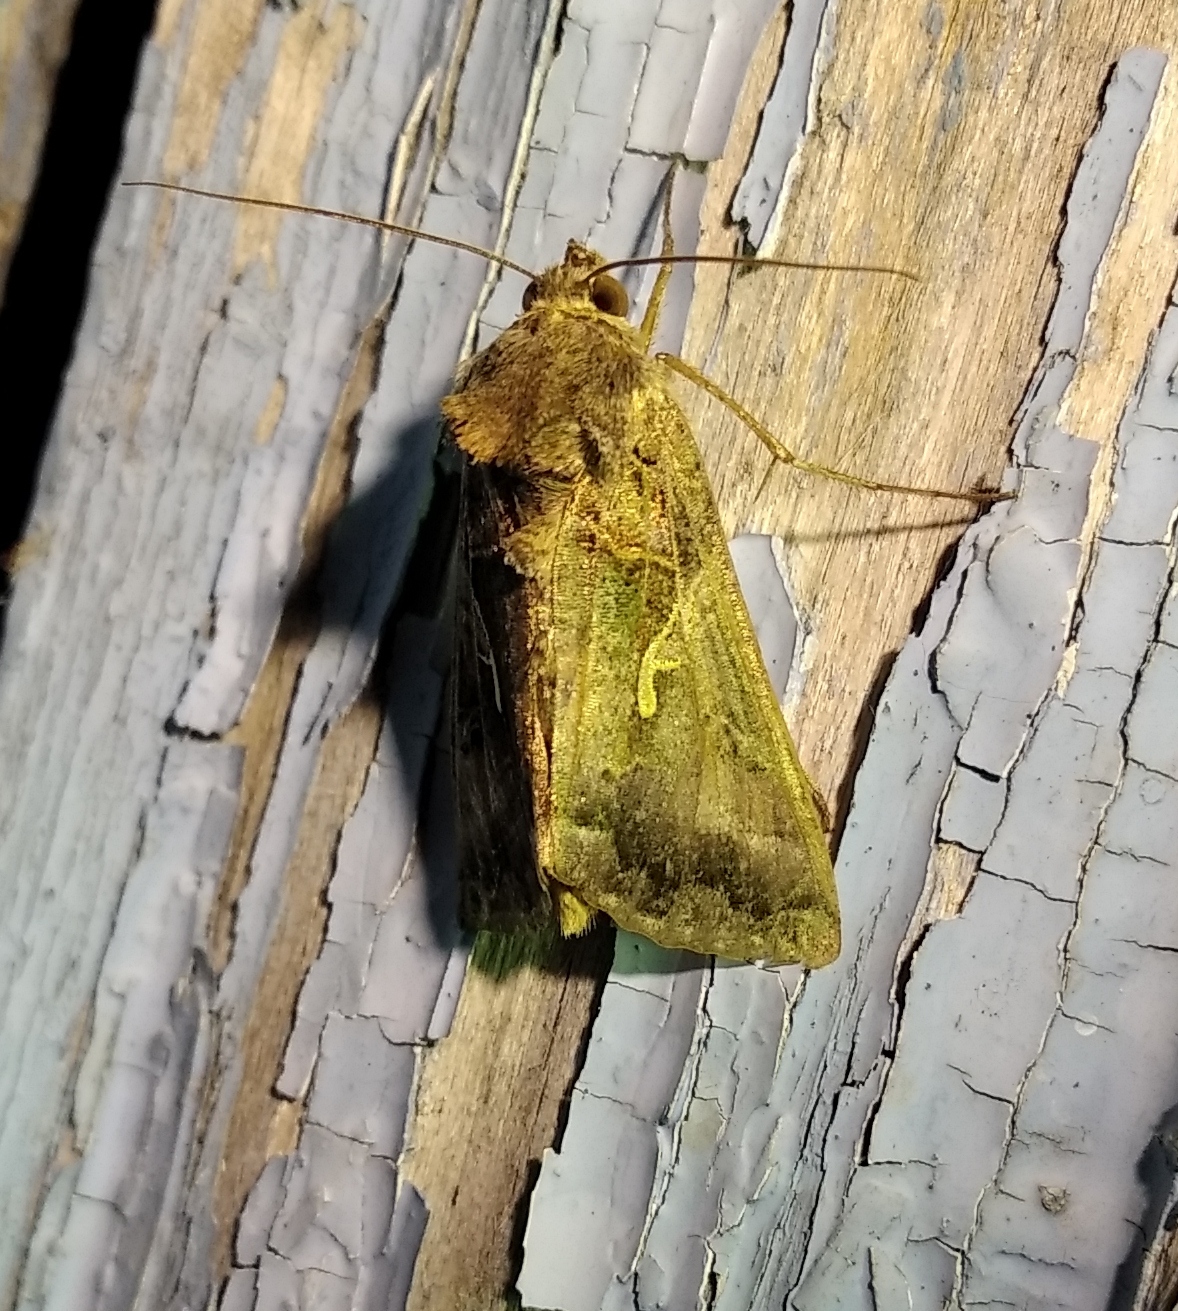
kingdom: Animalia
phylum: Arthropoda
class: Insecta
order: Lepidoptera
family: Noctuidae
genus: Autographa
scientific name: Autographa gamma
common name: Silver y
